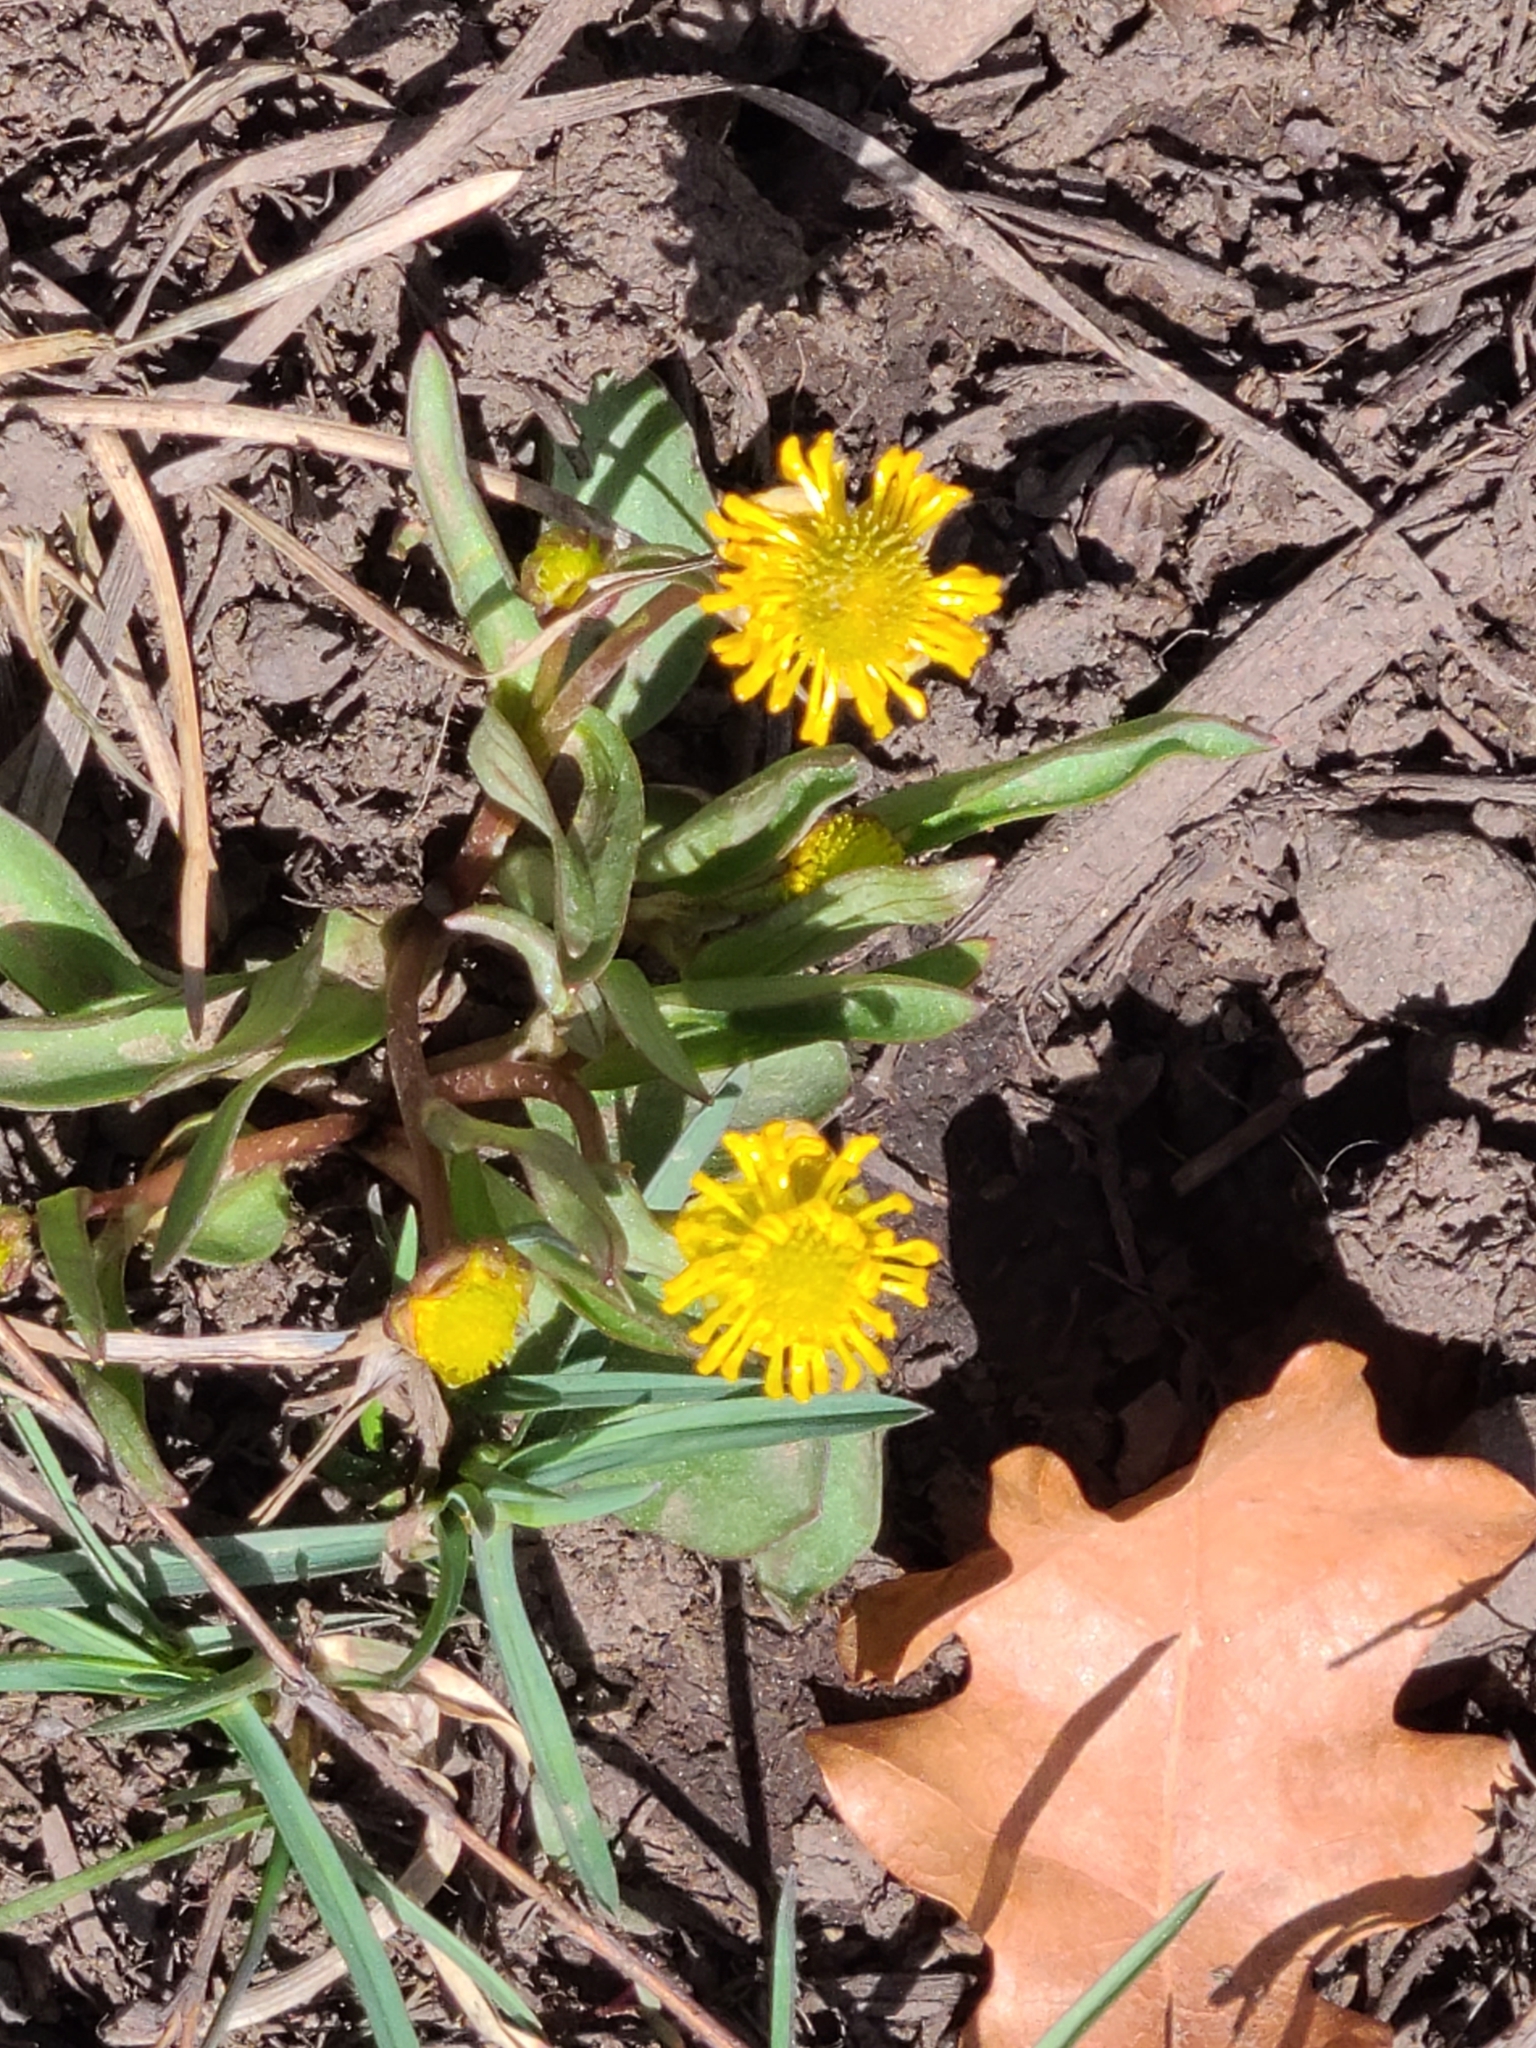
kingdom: Plantae
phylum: Tracheophyta
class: Magnoliopsida
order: Ranunculales
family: Ranunculaceae
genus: Ranunculus
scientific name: Ranunculus alismifolius
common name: Plantain-leaved buttercup
